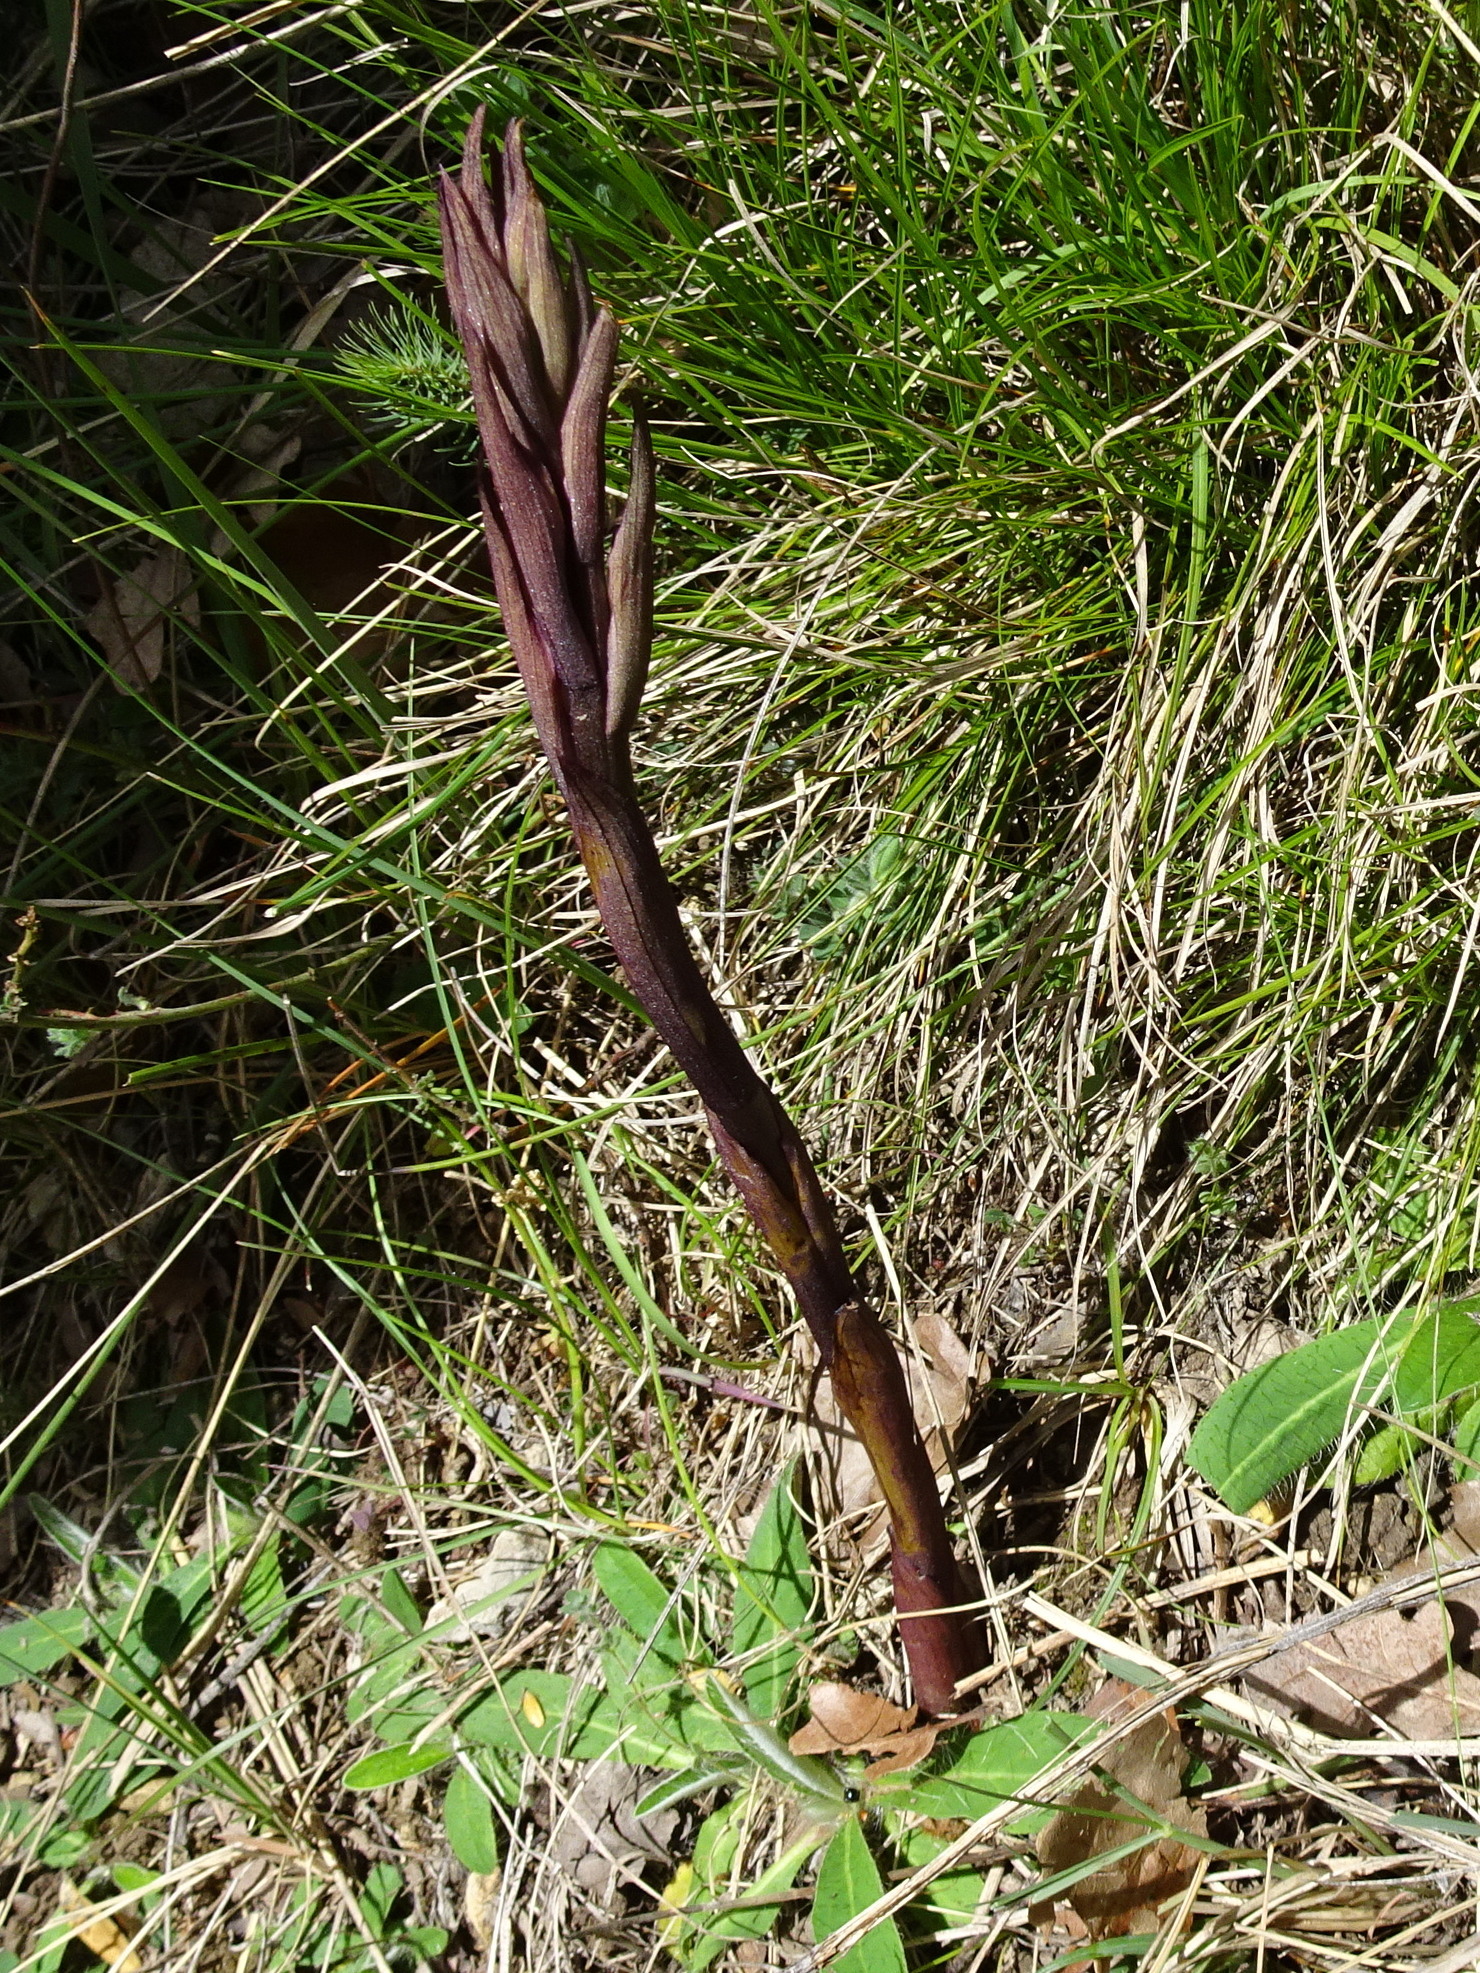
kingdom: Plantae
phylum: Tracheophyta
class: Liliopsida
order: Asparagales
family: Orchidaceae
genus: Limodorum
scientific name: Limodorum abortivum
